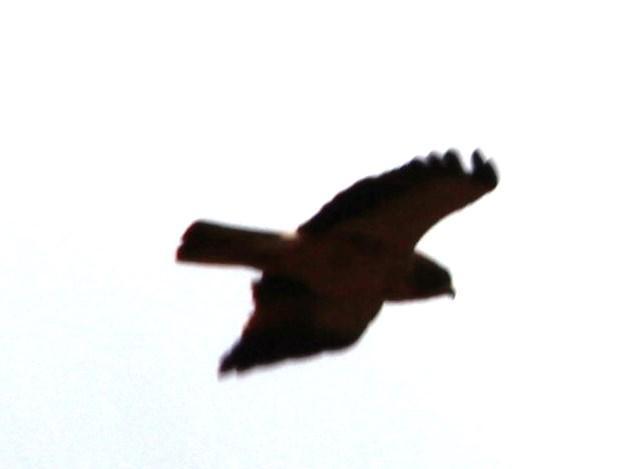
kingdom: Animalia
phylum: Chordata
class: Aves
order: Accipitriformes
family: Accipitridae
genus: Hieraaetus
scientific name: Hieraaetus pennatus
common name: Booted eagle
